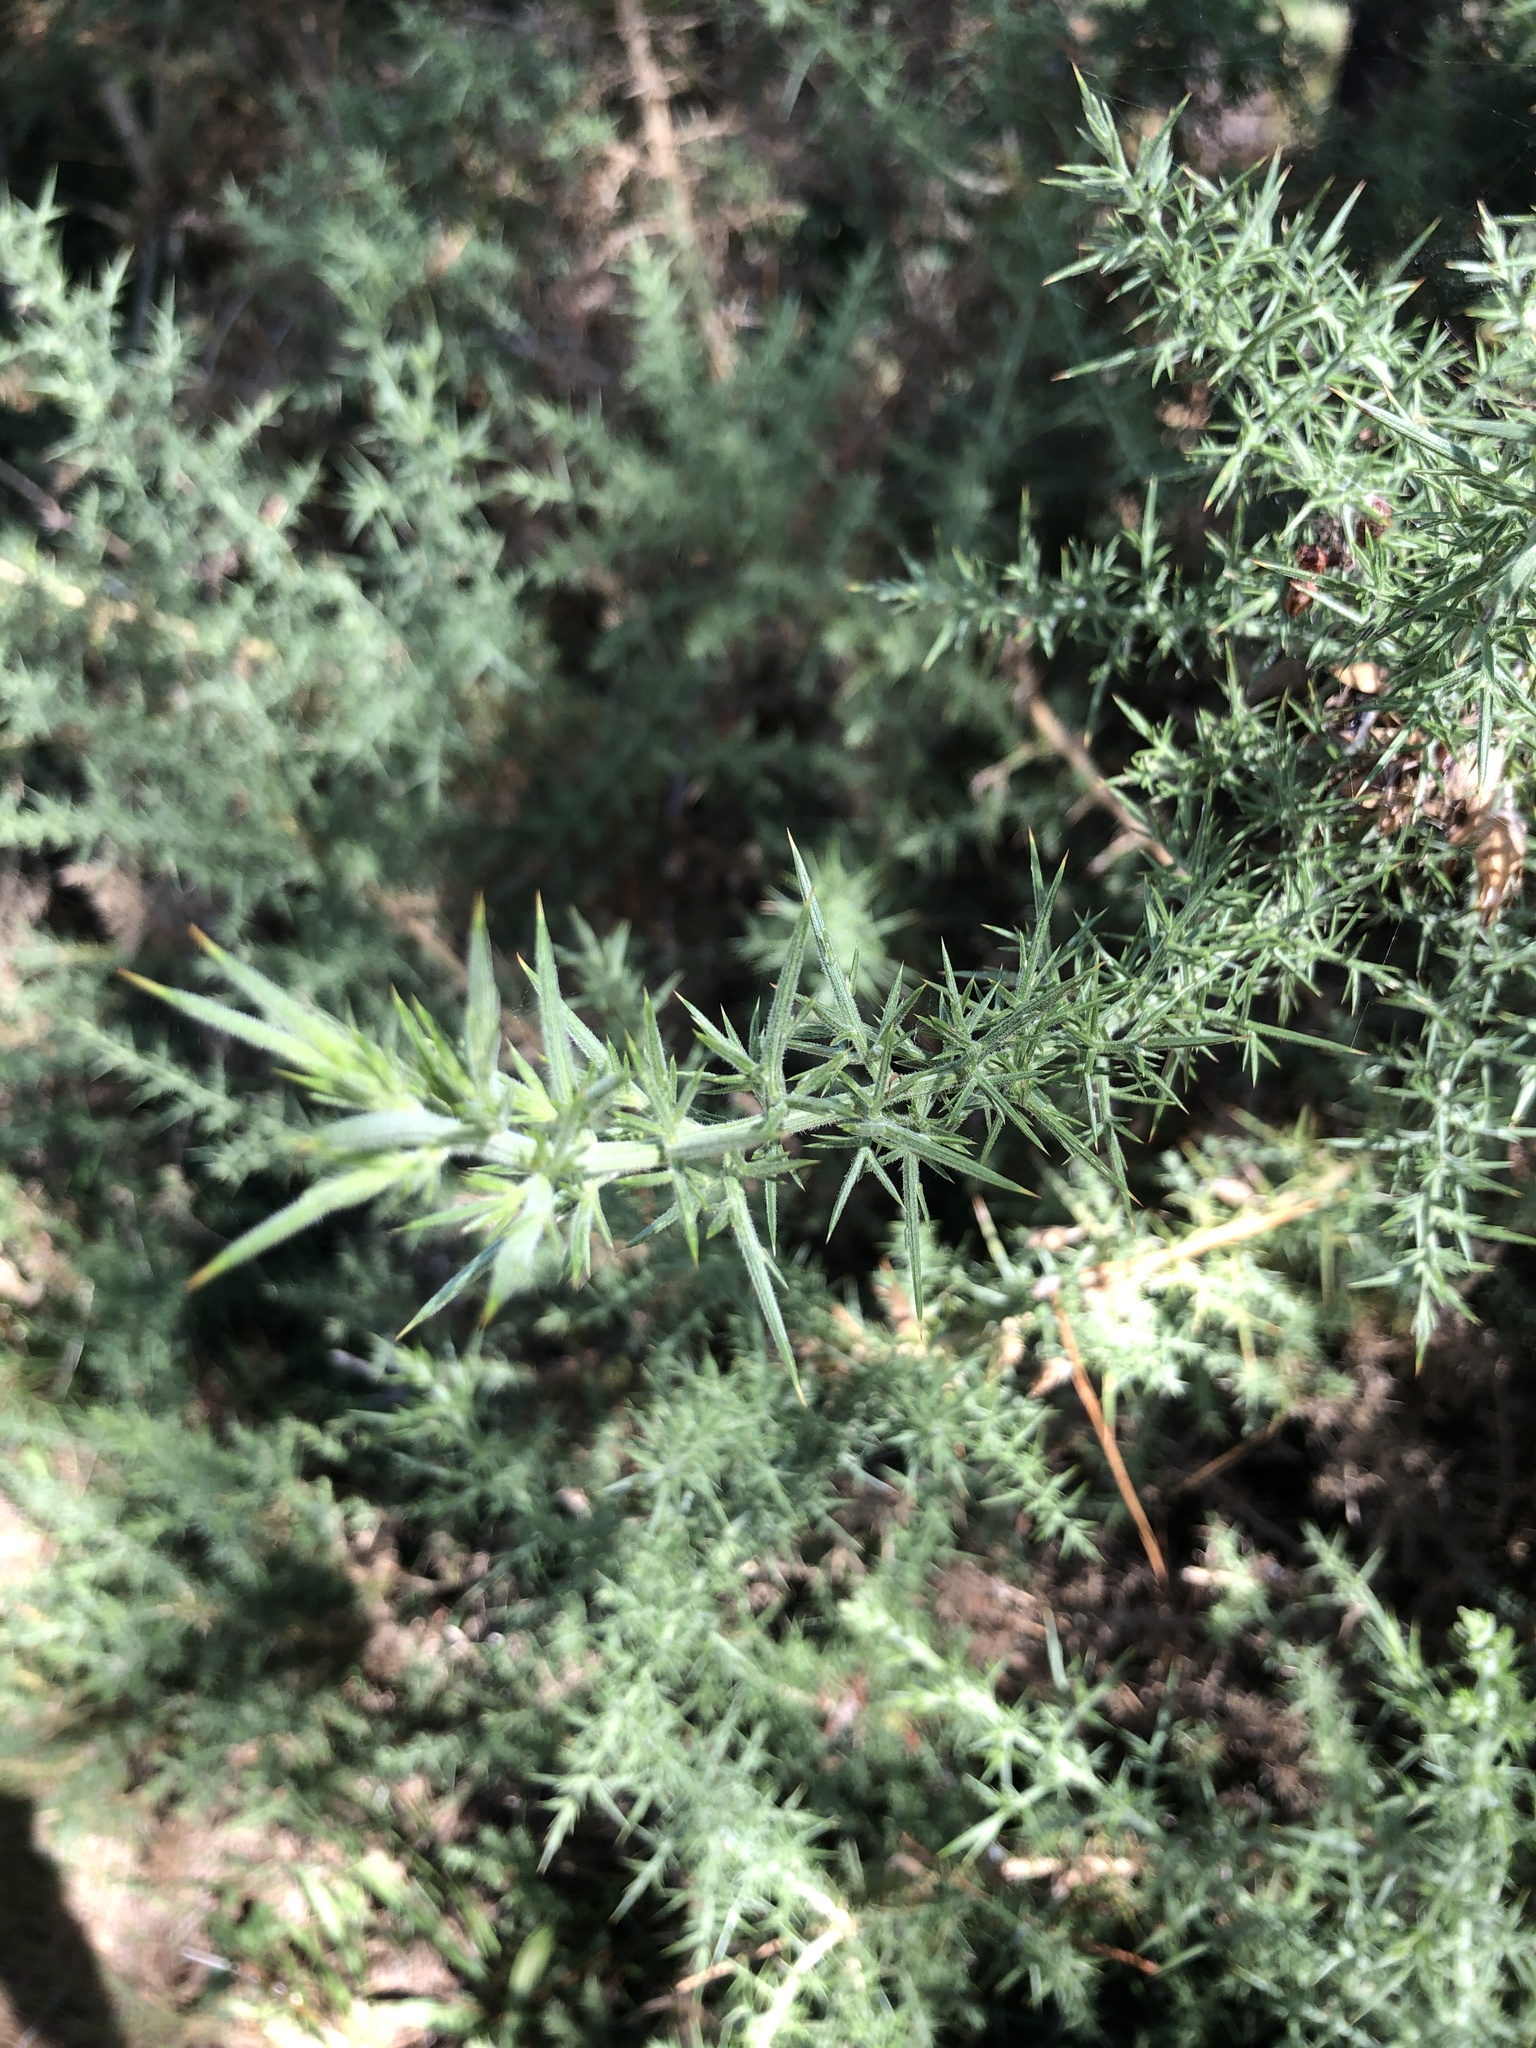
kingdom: Plantae
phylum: Tracheophyta
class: Magnoliopsida
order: Fabales
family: Fabaceae
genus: Ulex
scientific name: Ulex europaeus
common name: Common gorse
